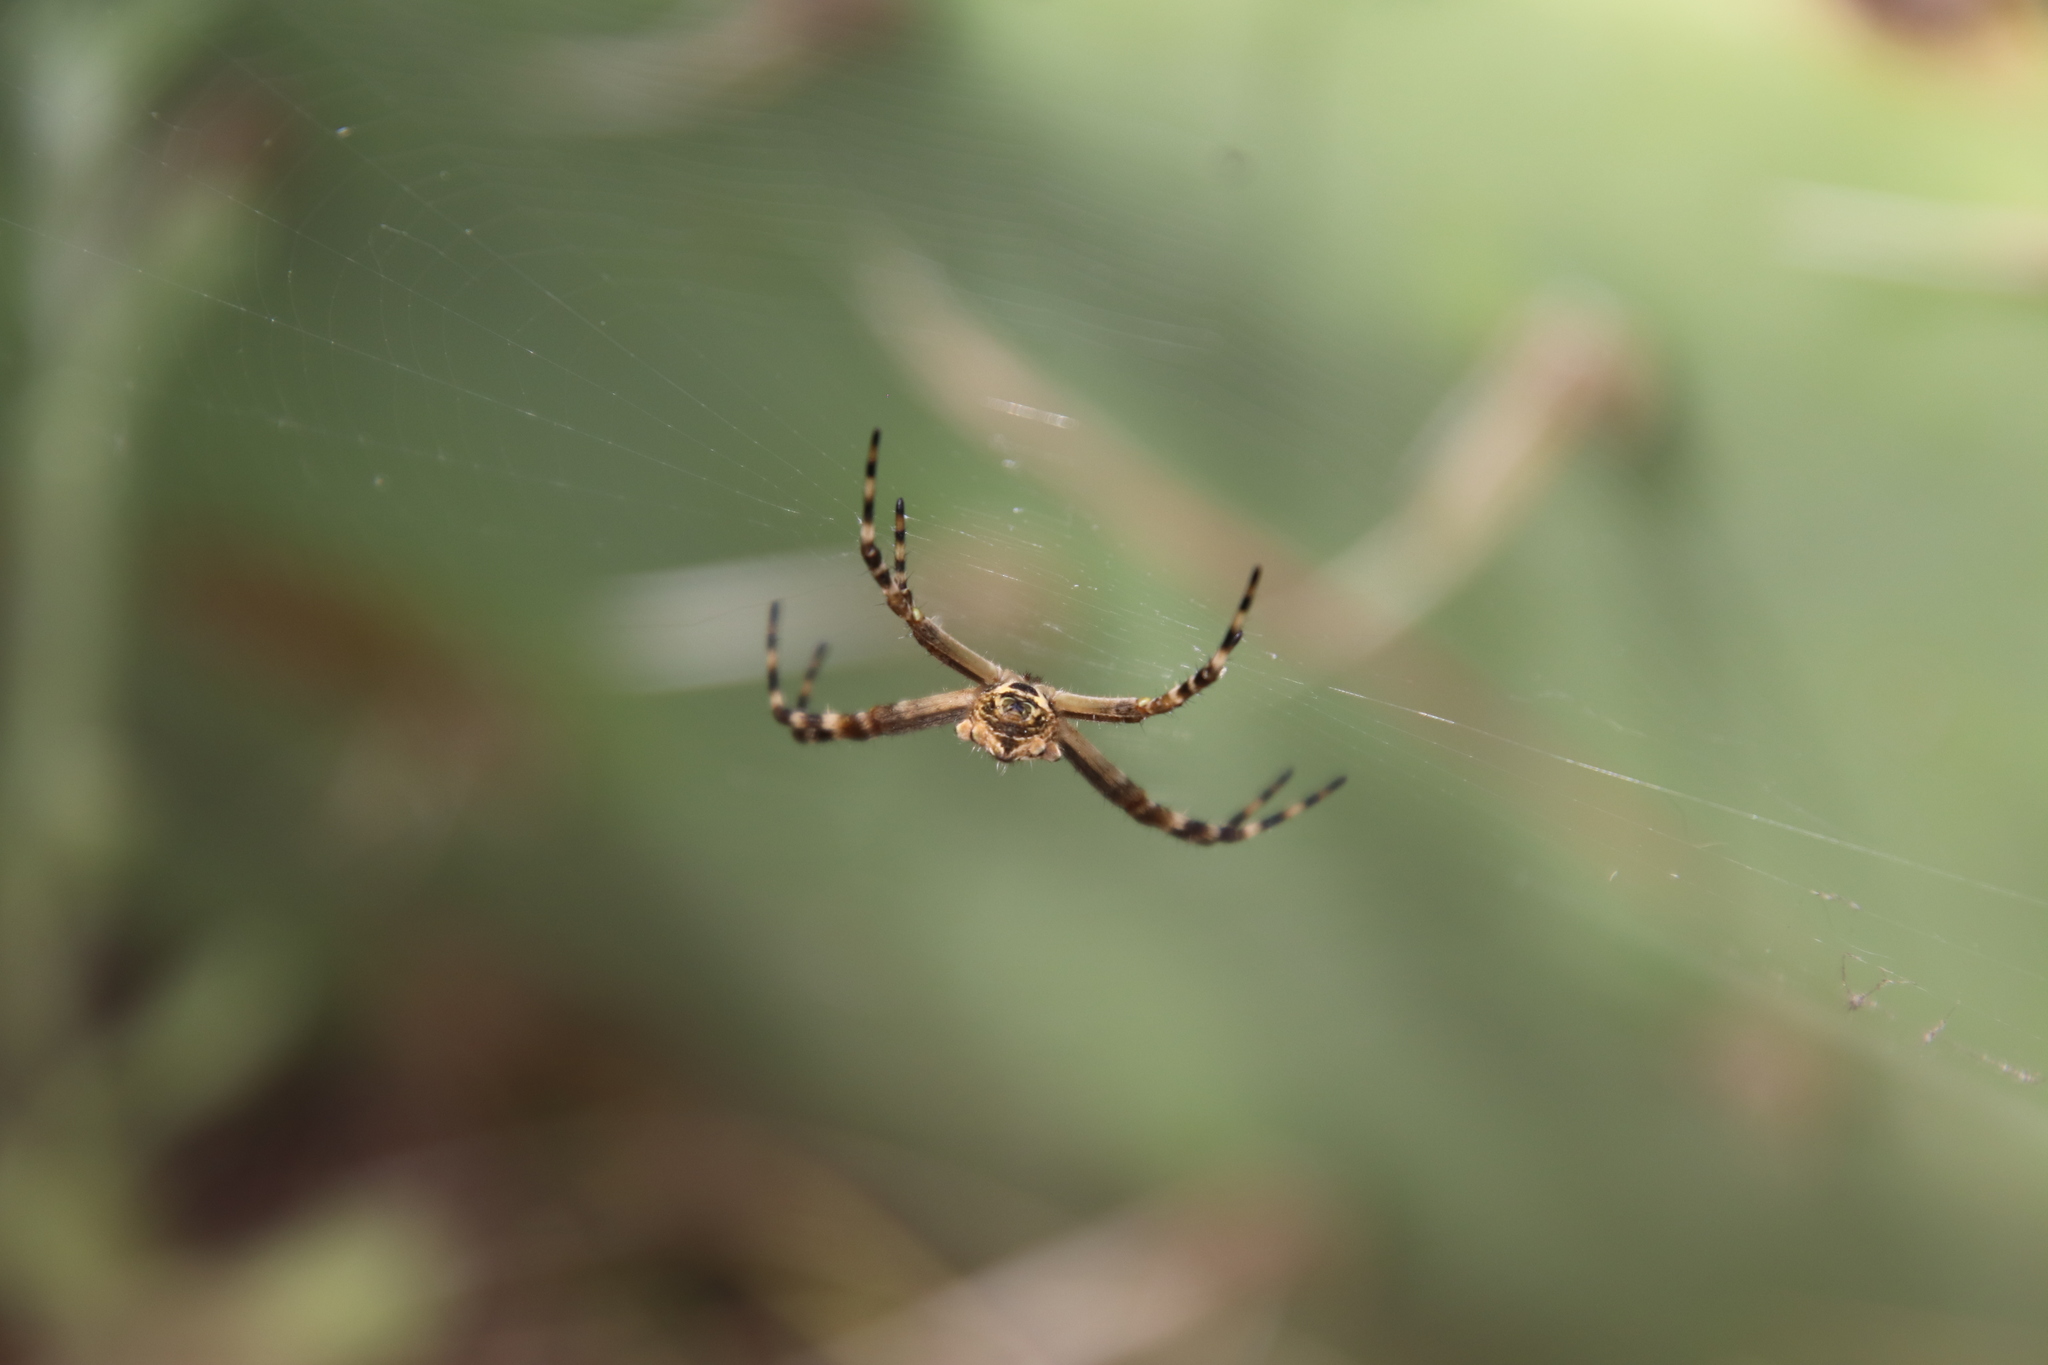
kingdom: Animalia
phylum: Arthropoda
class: Arachnida
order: Araneae
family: Araneidae
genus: Argiope
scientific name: Argiope argentata
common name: Orb weavers
